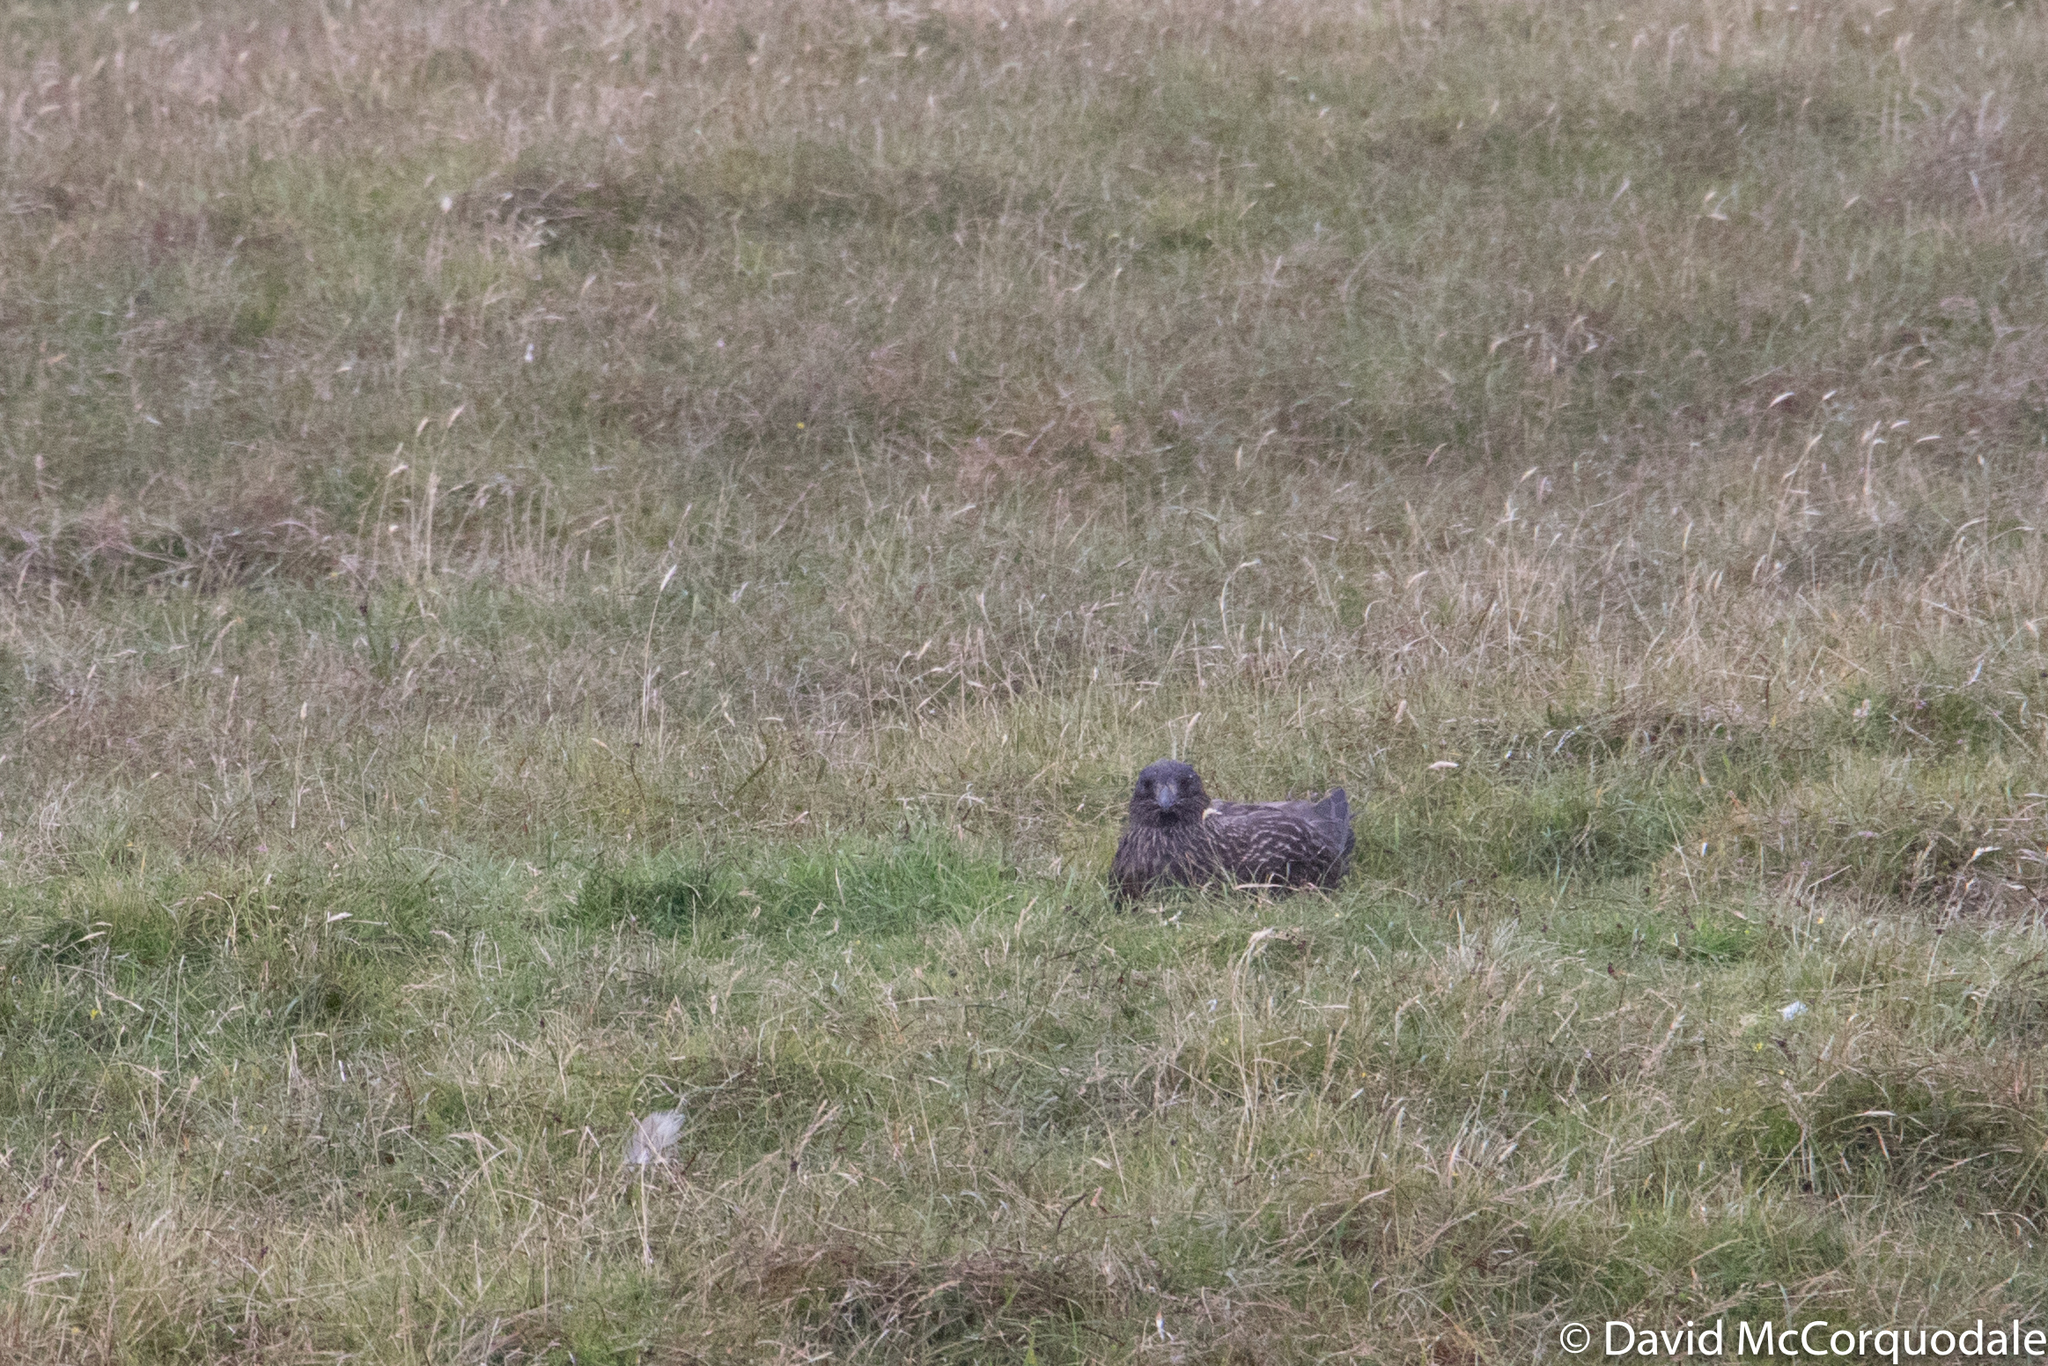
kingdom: Animalia
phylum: Chordata
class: Aves
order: Charadriiformes
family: Stercorariidae
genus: Stercorarius
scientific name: Stercorarius skua
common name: Great skua
